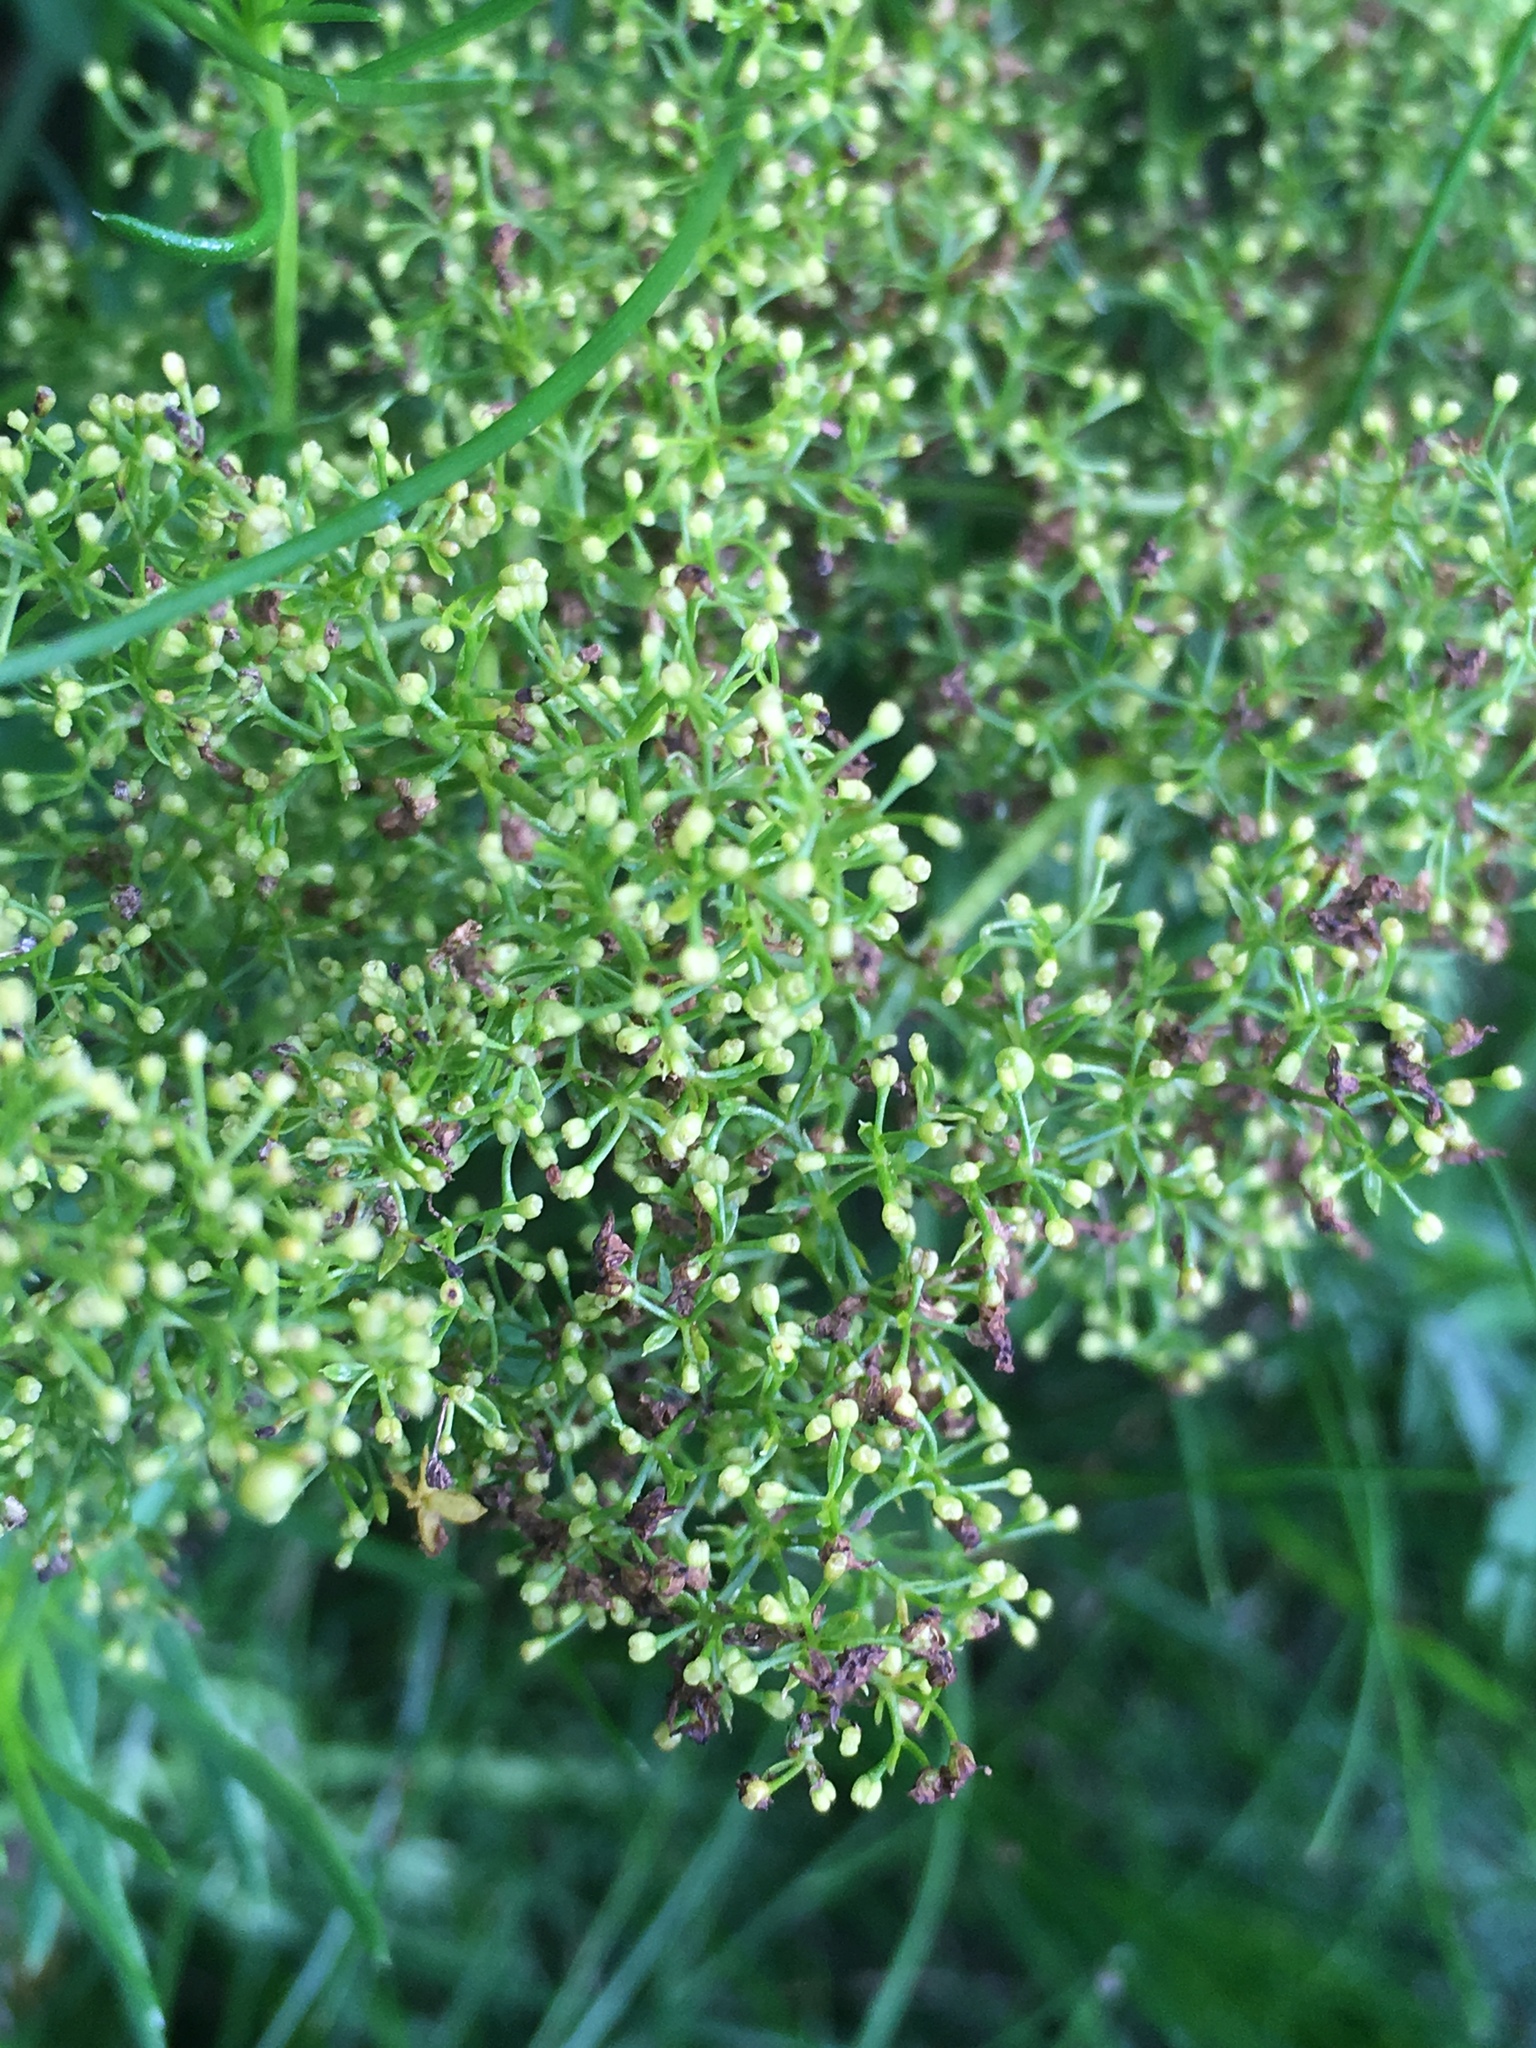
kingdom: Plantae
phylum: Tracheophyta
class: Magnoliopsida
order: Gentianales
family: Rubiaceae
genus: Galium
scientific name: Galium verum
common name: Lady's bedstraw
